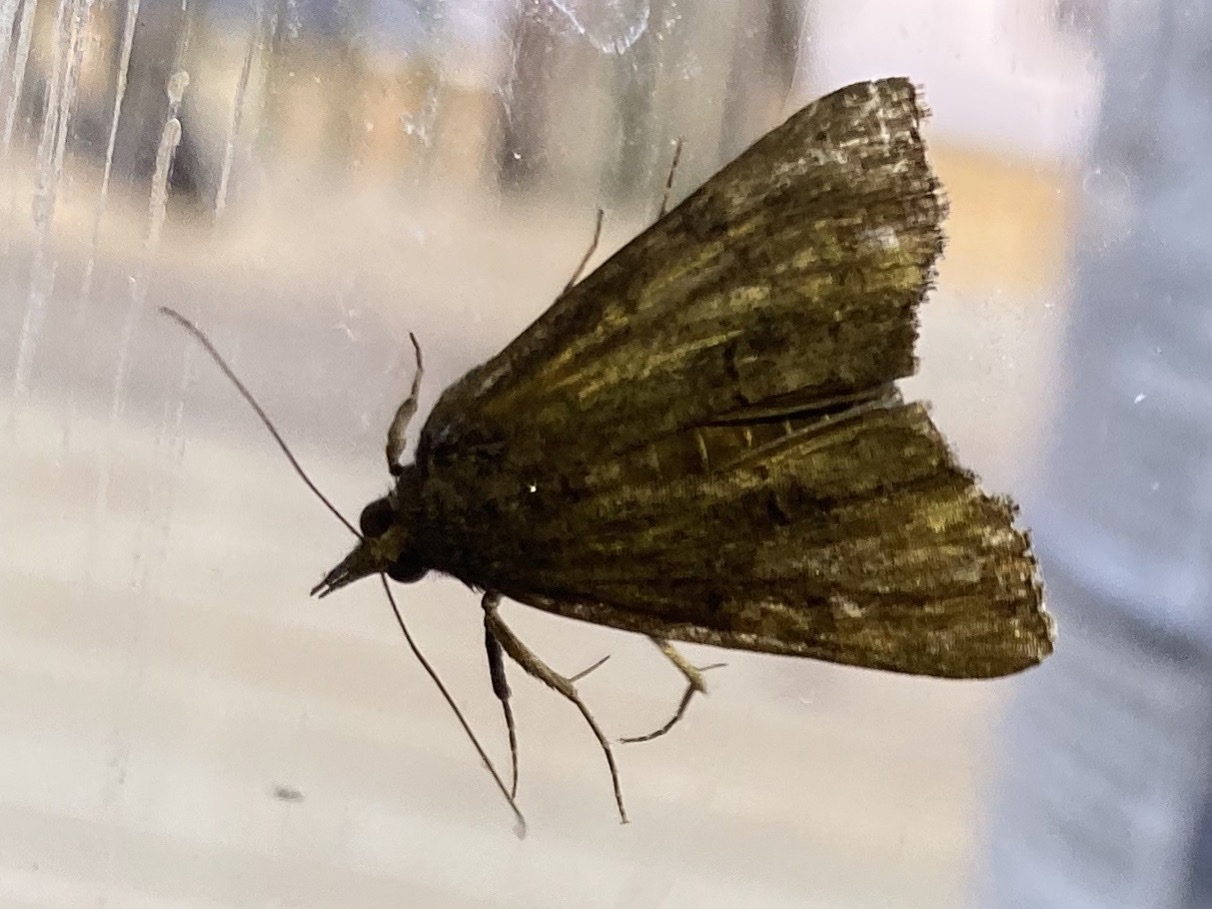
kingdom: Animalia
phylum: Arthropoda
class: Insecta
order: Lepidoptera
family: Erebidae
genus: Hypena
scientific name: Hypena scabra
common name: Green cloverworm
